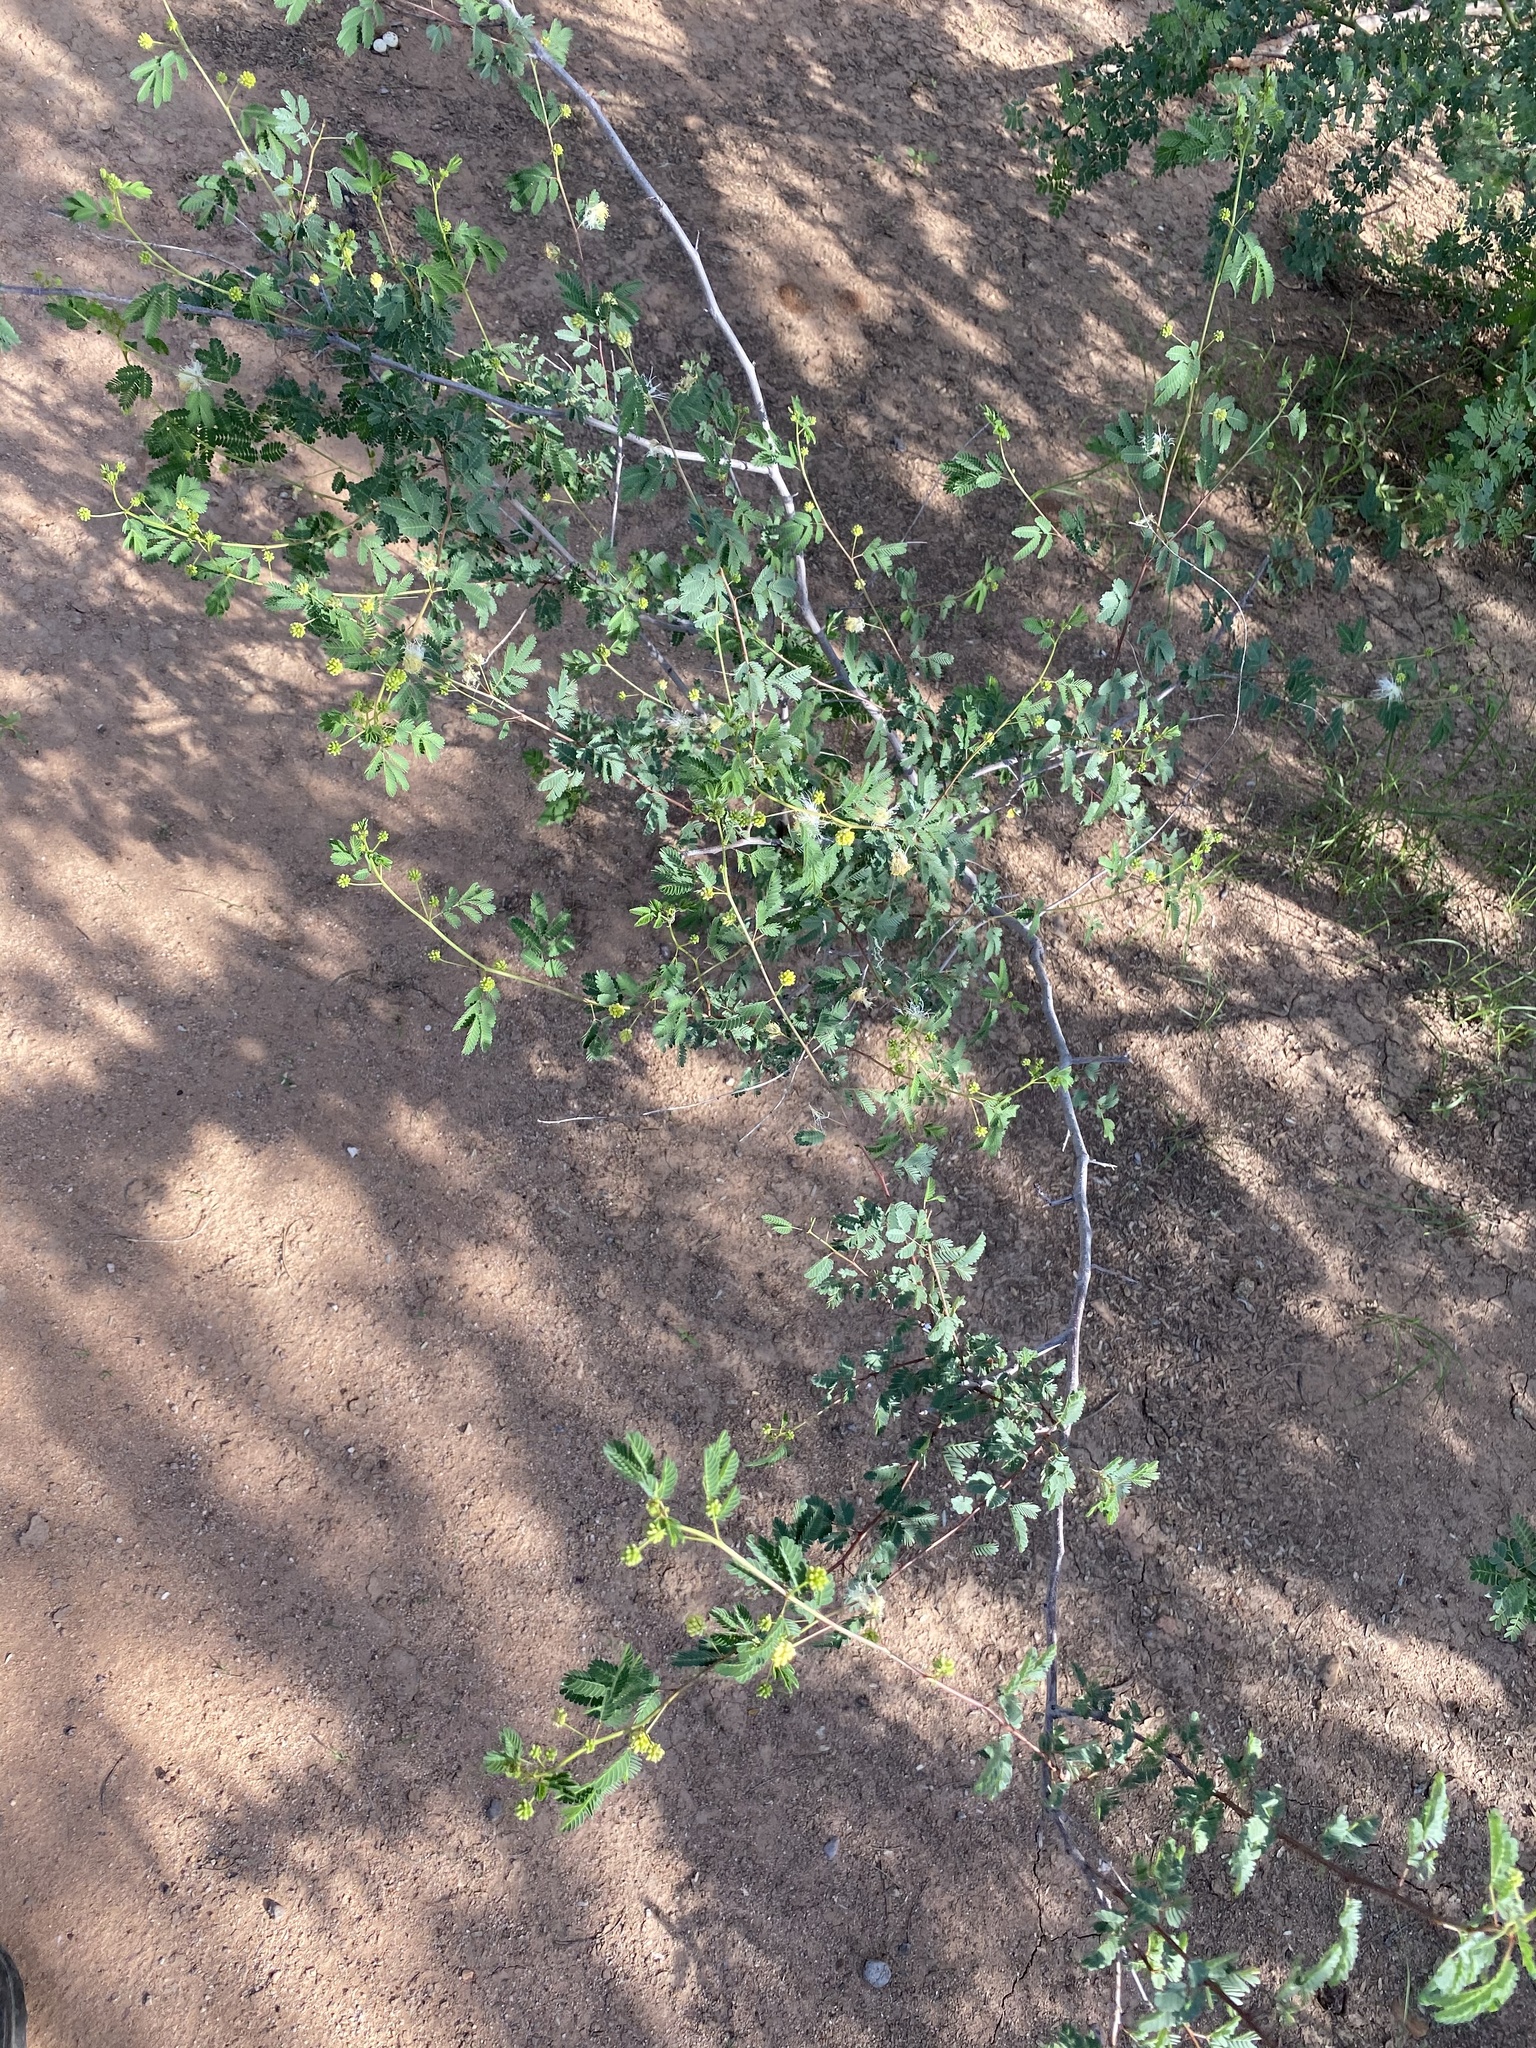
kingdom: Plantae
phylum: Tracheophyta
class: Magnoliopsida
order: Fabales
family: Fabaceae
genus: Desmanthus
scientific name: Desmanthus covillei
